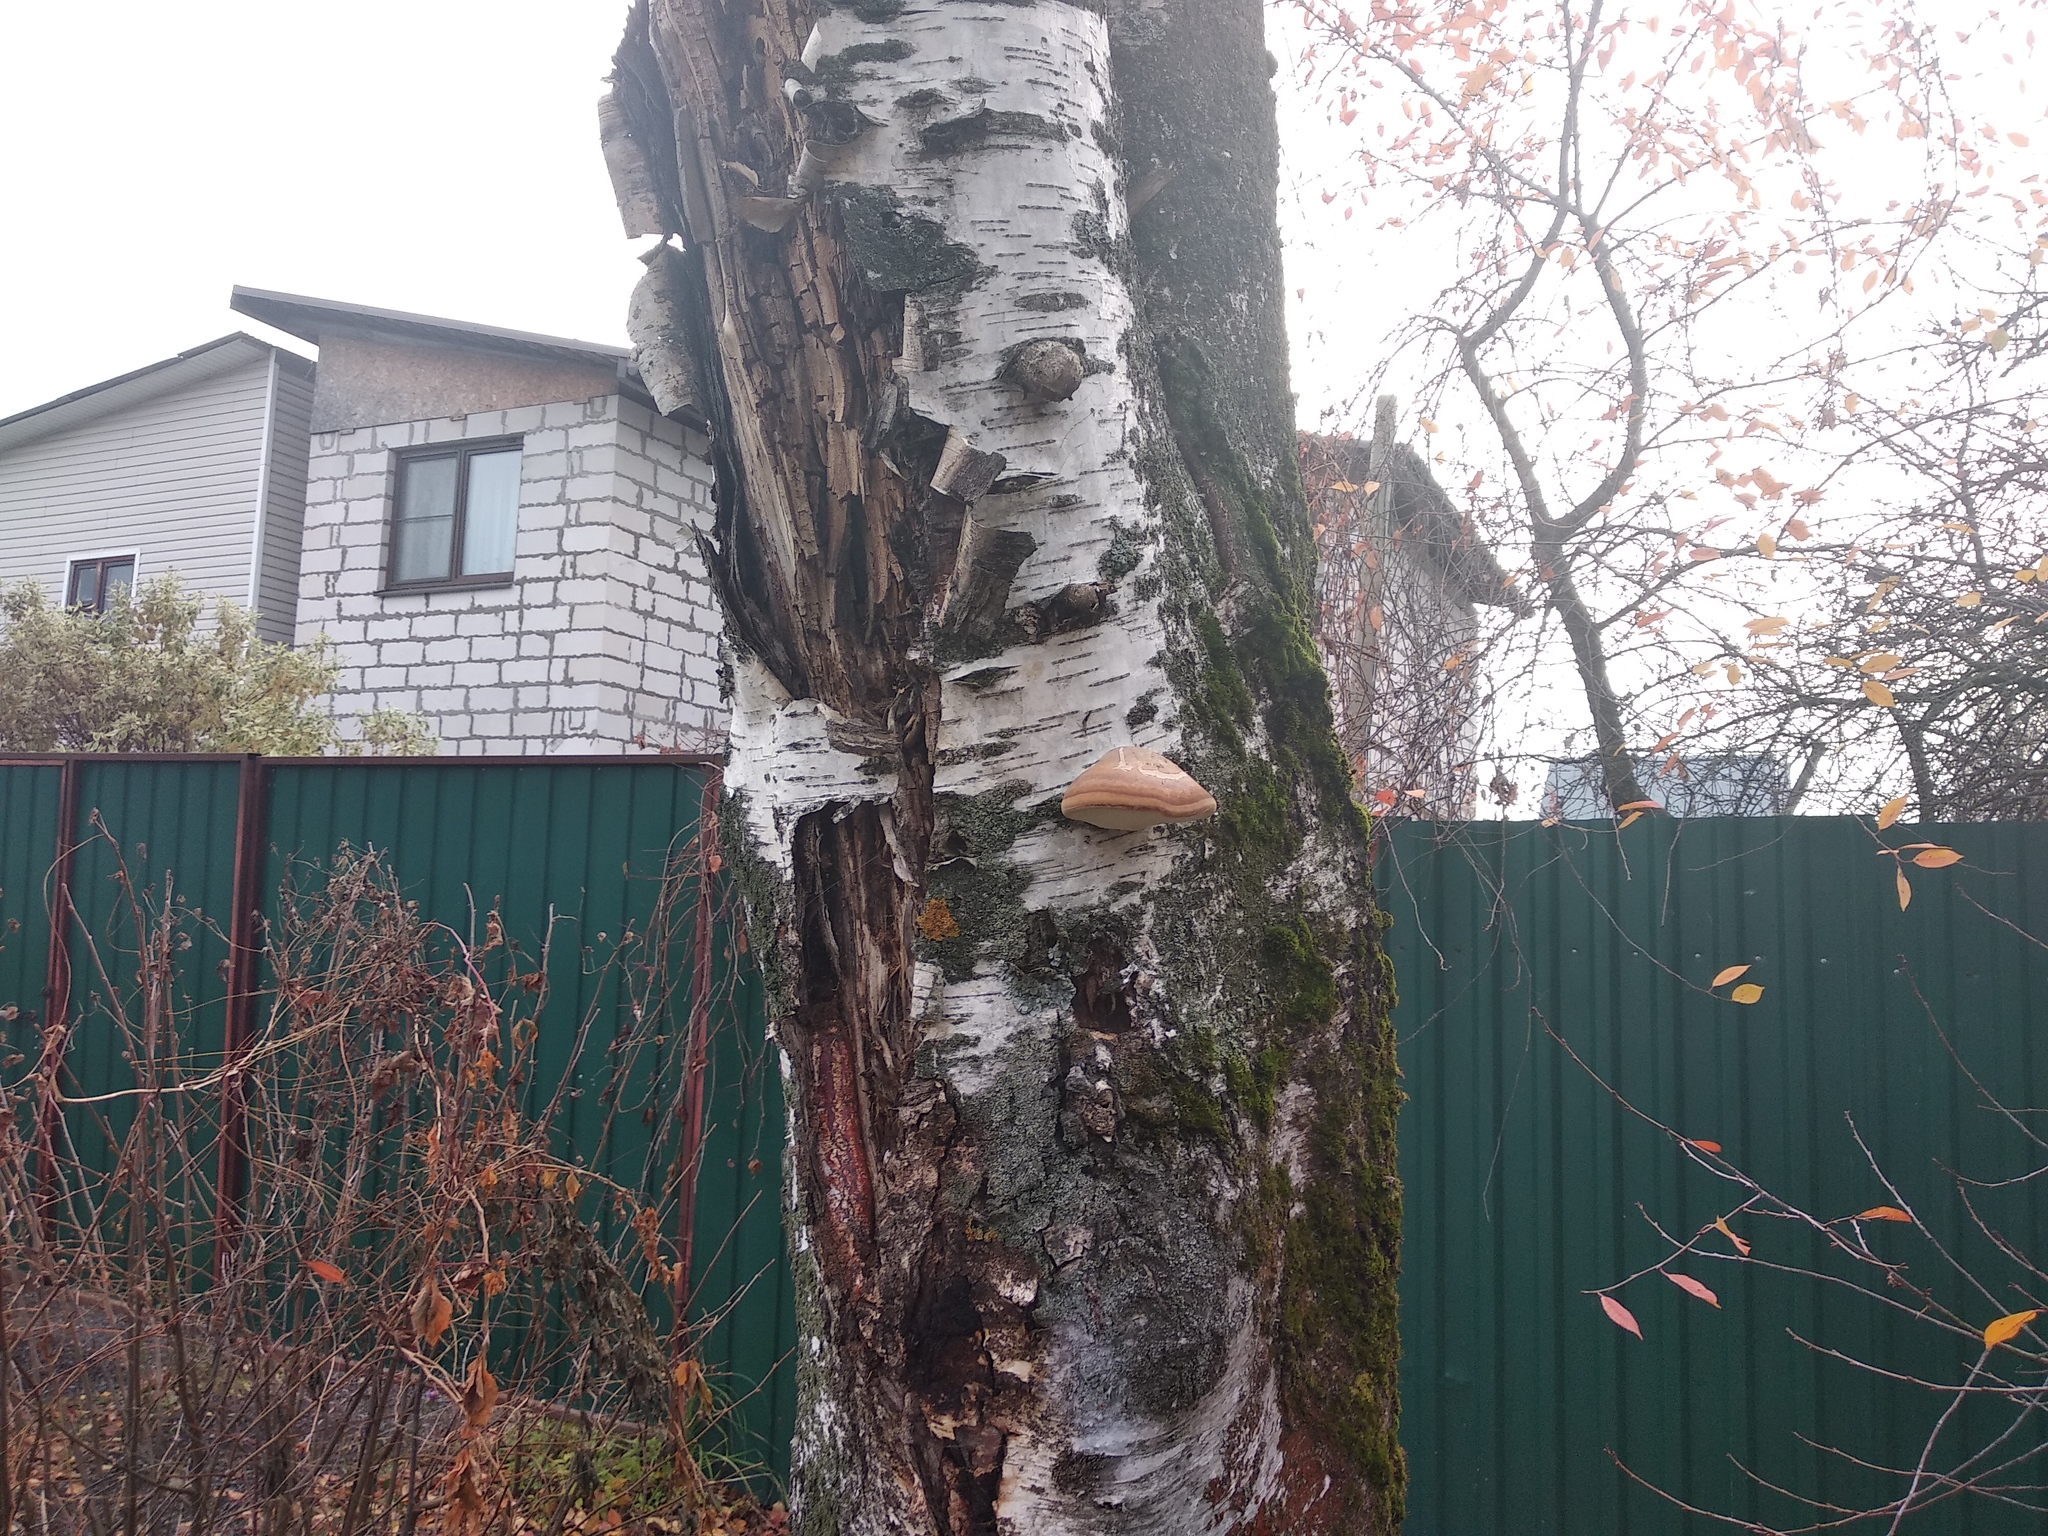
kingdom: Fungi
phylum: Basidiomycota
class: Agaricomycetes
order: Polyporales
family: Polyporaceae
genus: Fomes
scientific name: Fomes fomentarius
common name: Hoof fungus
